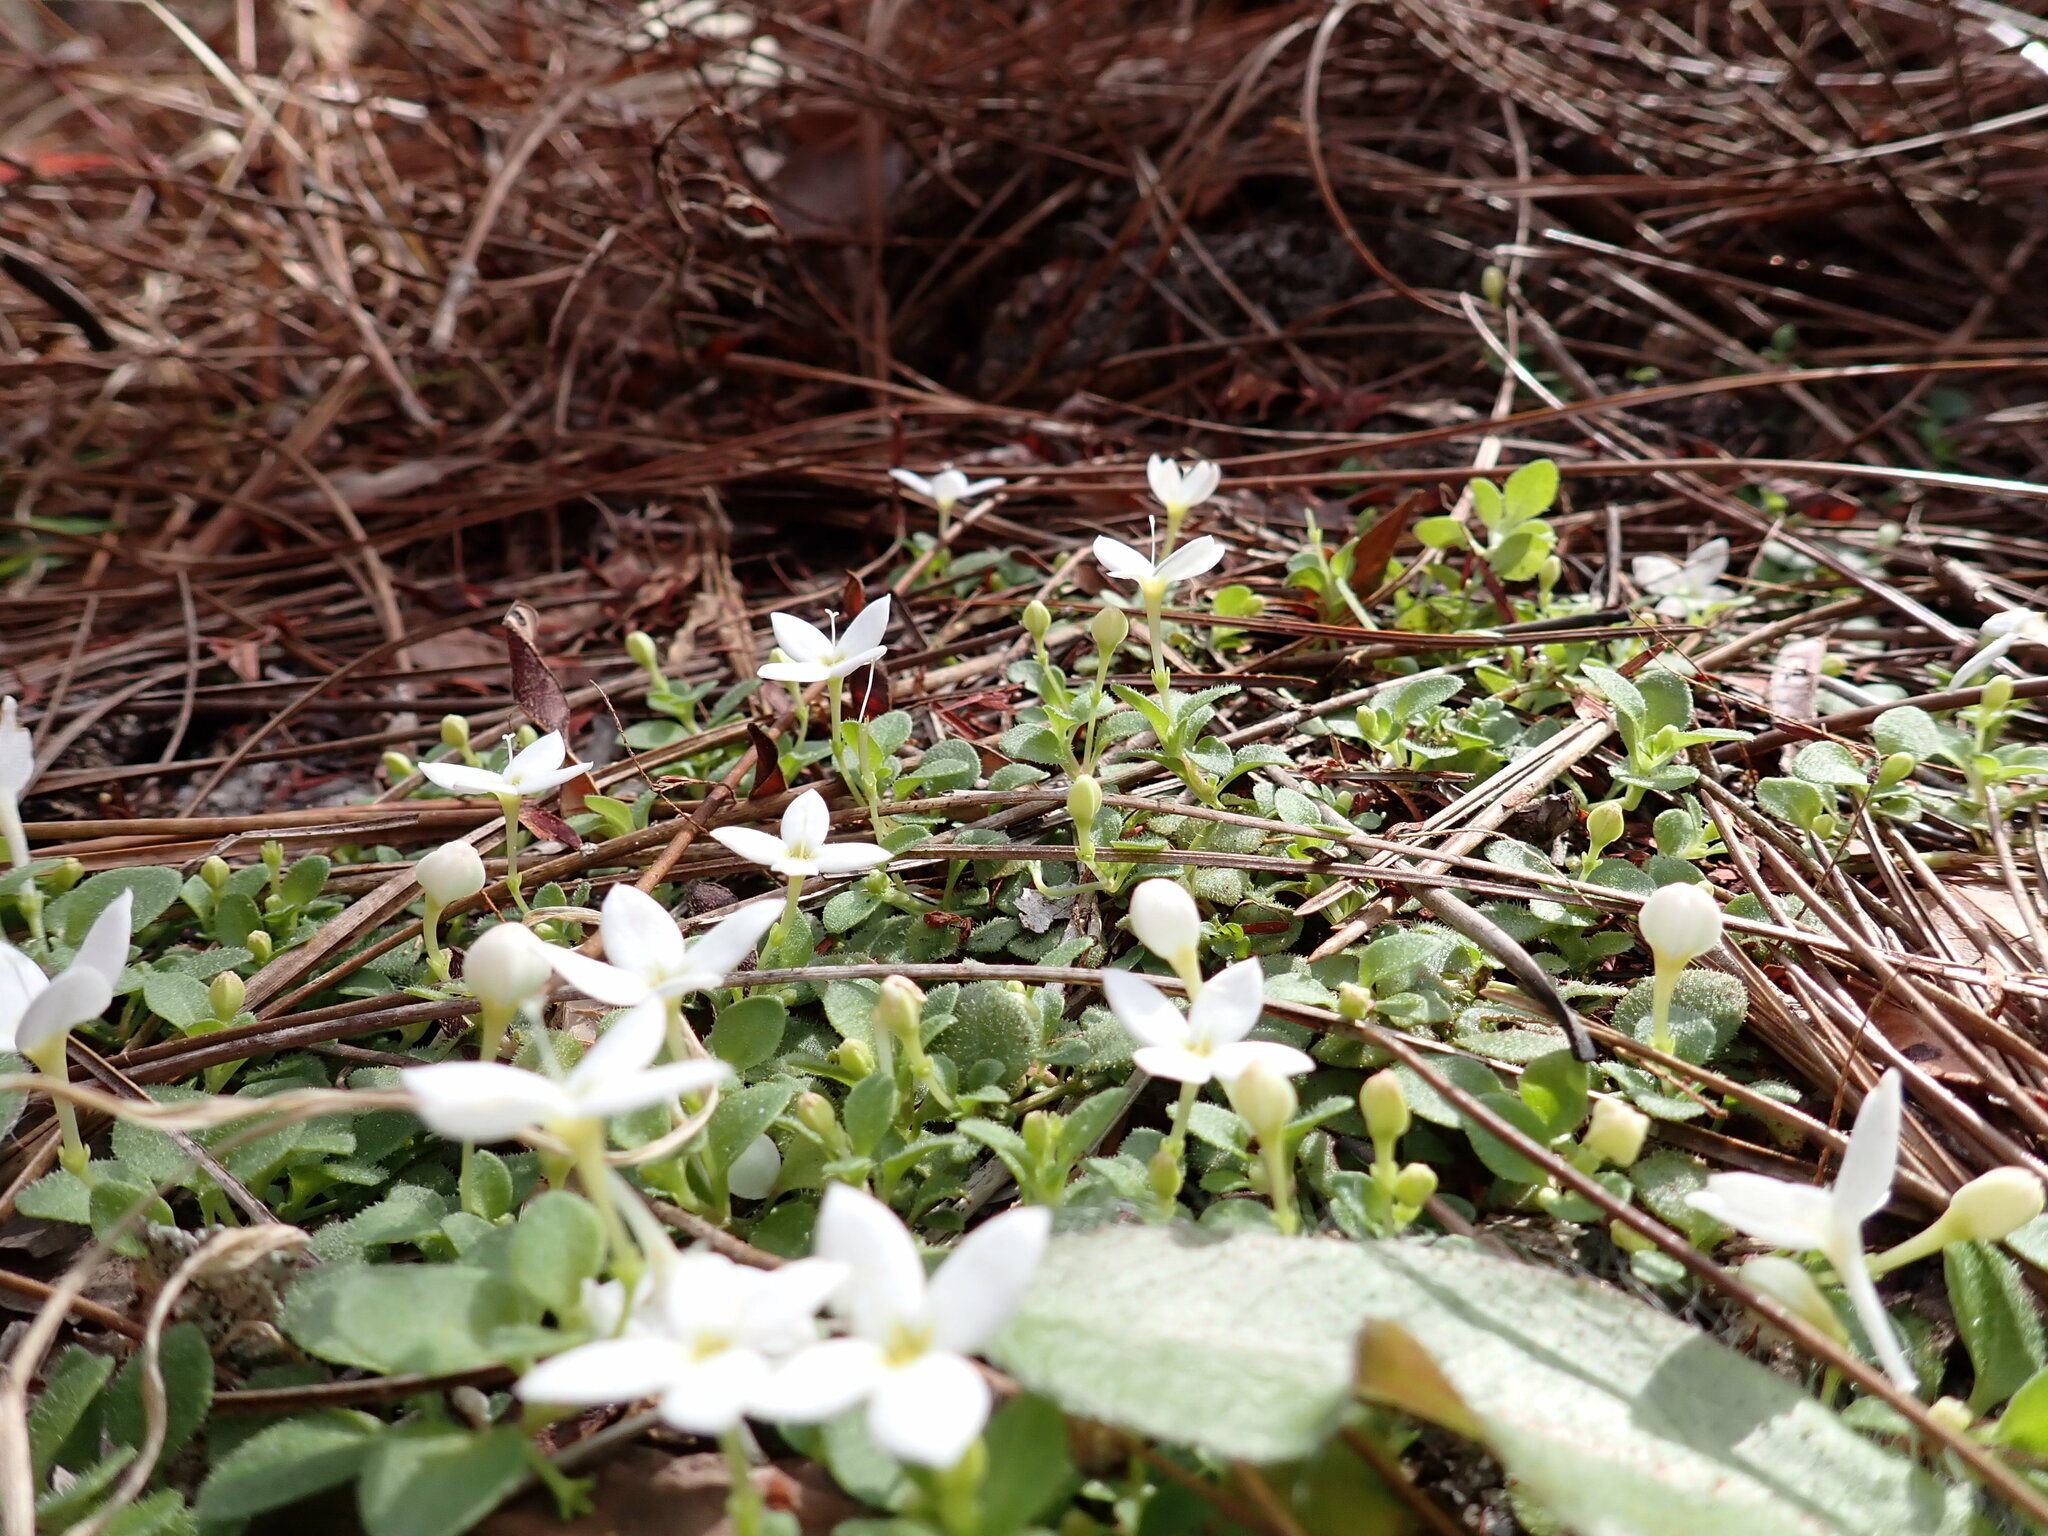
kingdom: Plantae
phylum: Tracheophyta
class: Magnoliopsida
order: Gentianales
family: Rubiaceae
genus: Houstonia
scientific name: Houstonia procumbens
